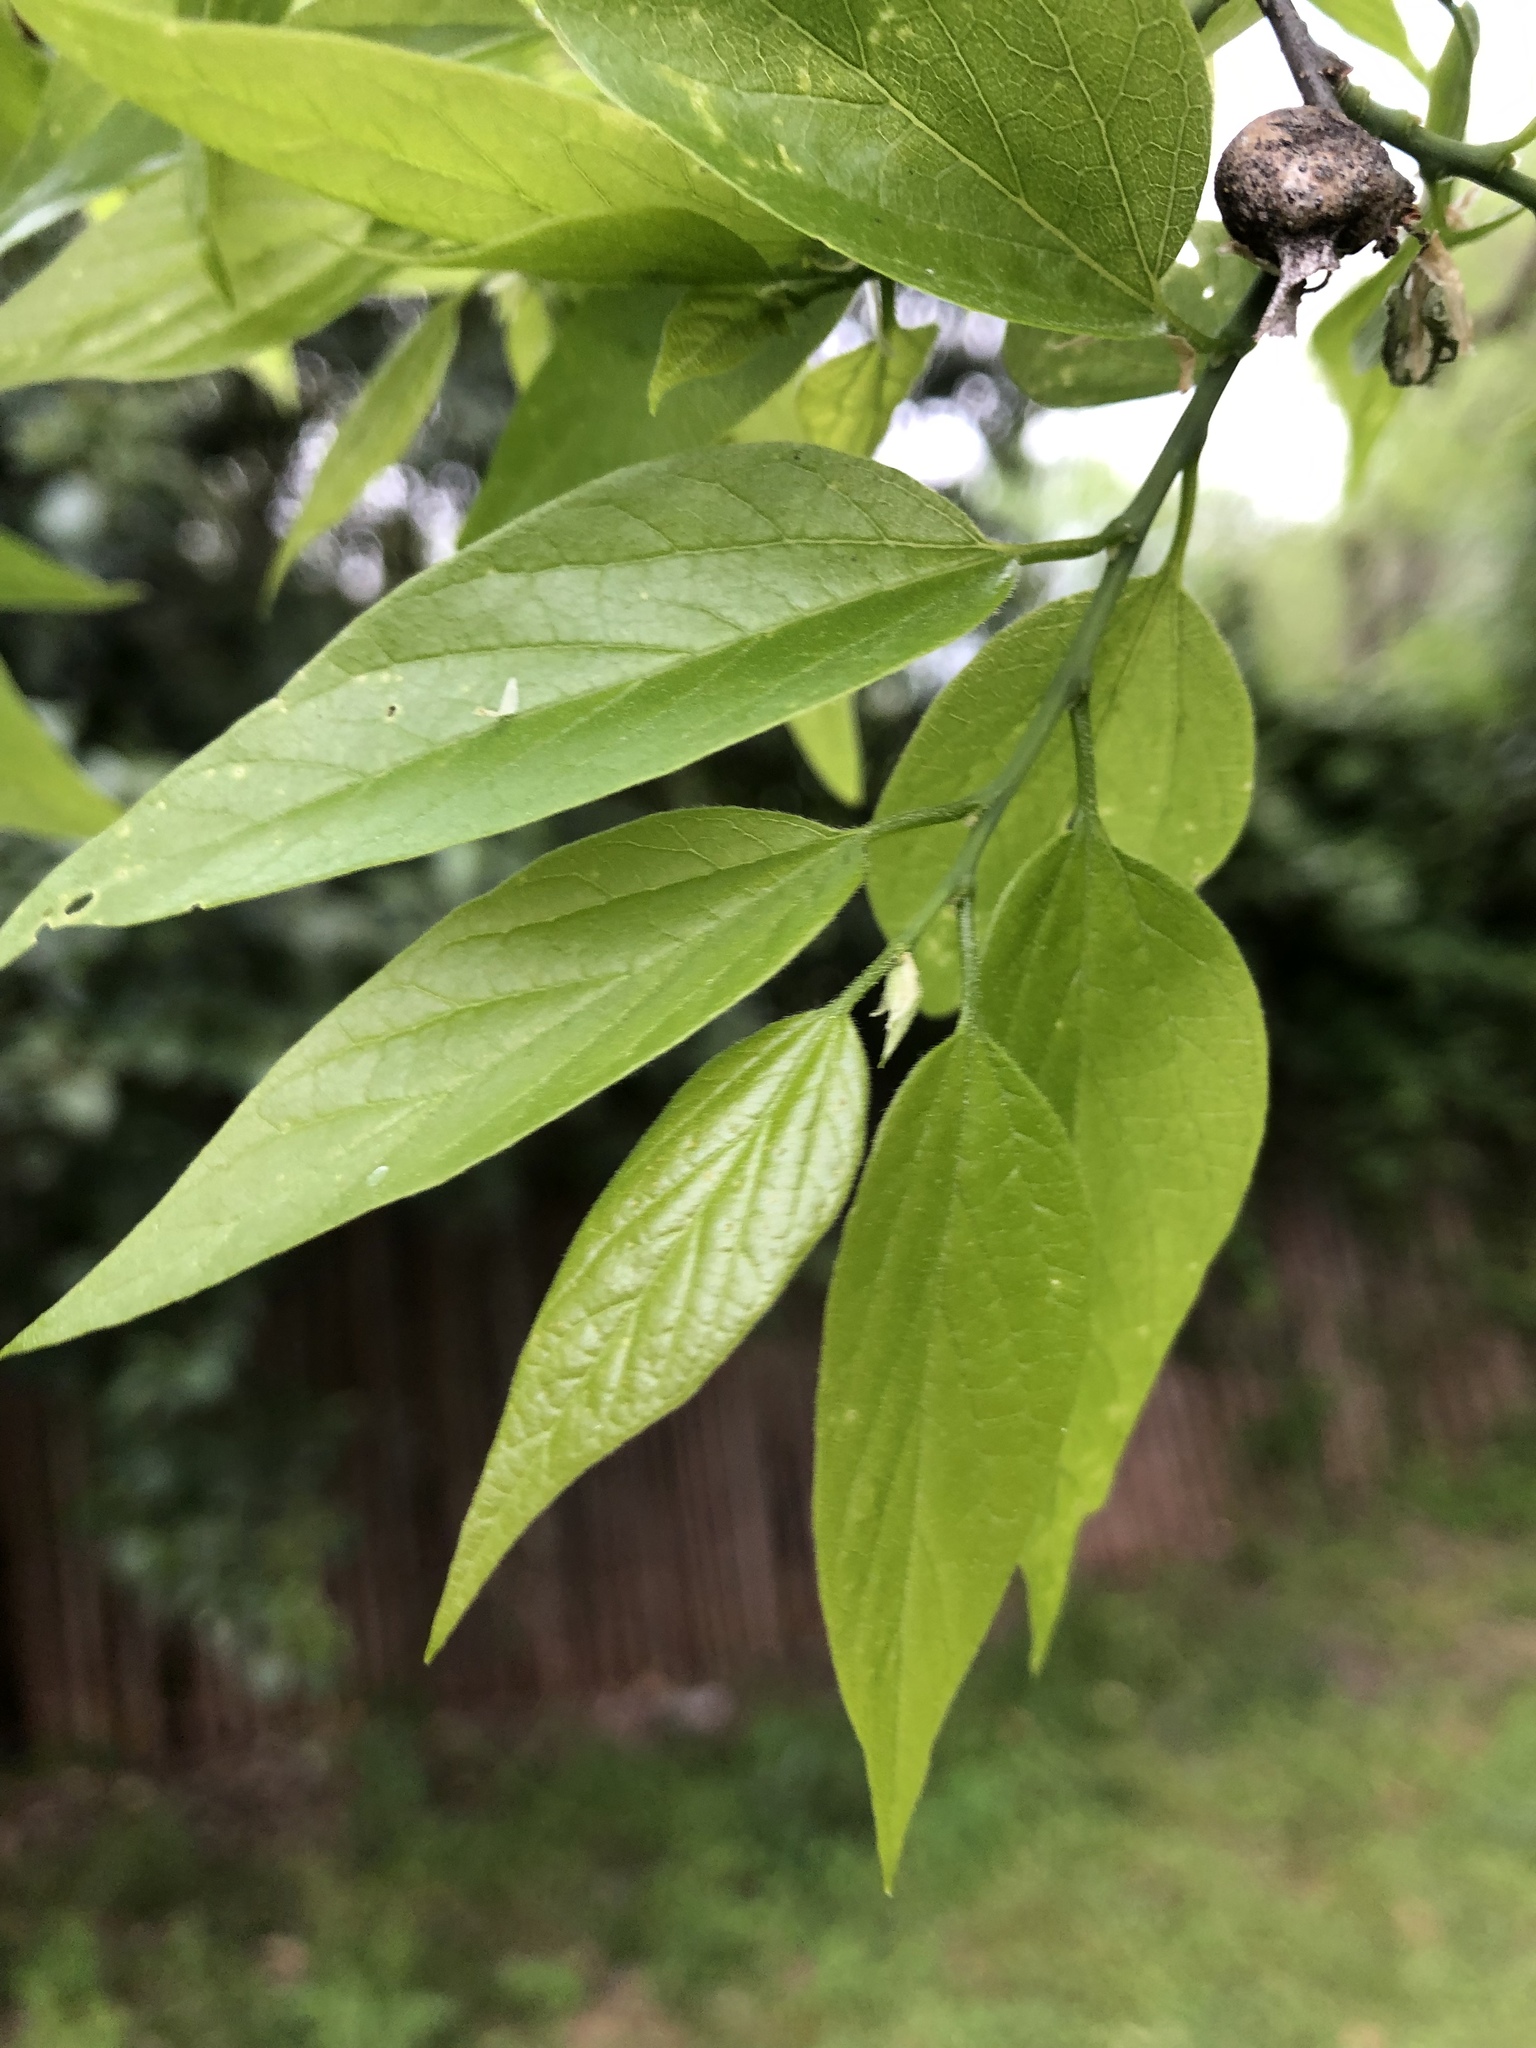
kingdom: Plantae
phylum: Tracheophyta
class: Magnoliopsida
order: Rosales
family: Cannabaceae
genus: Celtis
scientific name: Celtis laevigata
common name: Sugarberry
